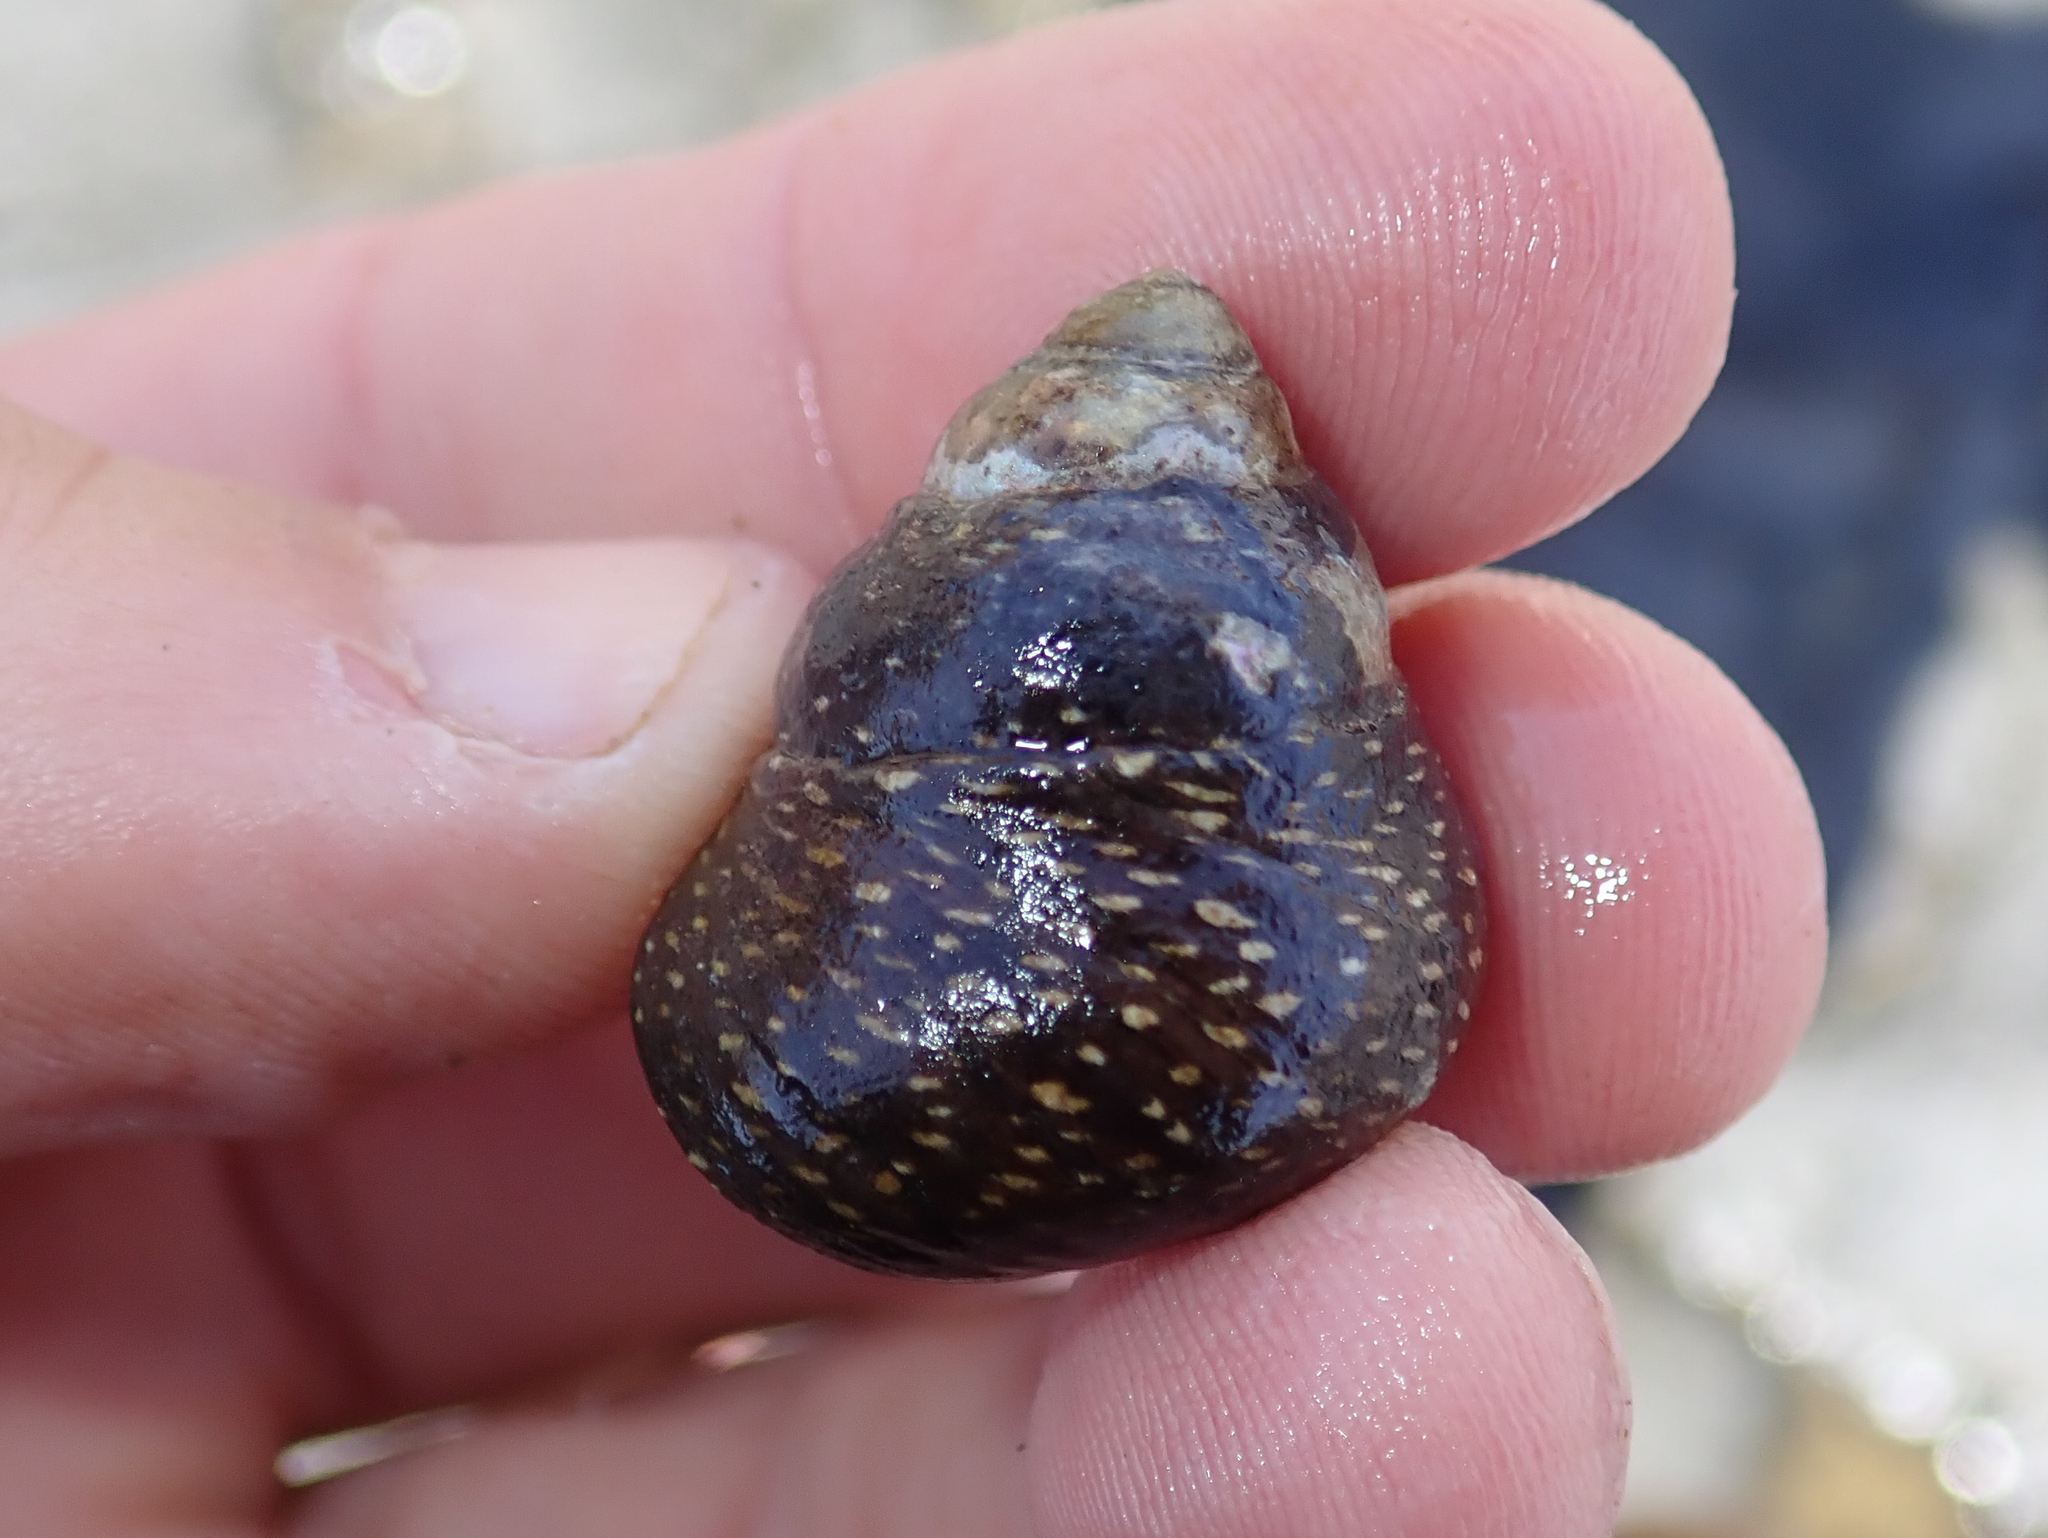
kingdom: Animalia
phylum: Mollusca
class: Gastropoda
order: Trochida
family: Trochidae
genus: Phorcus
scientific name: Phorcus punctulatus
